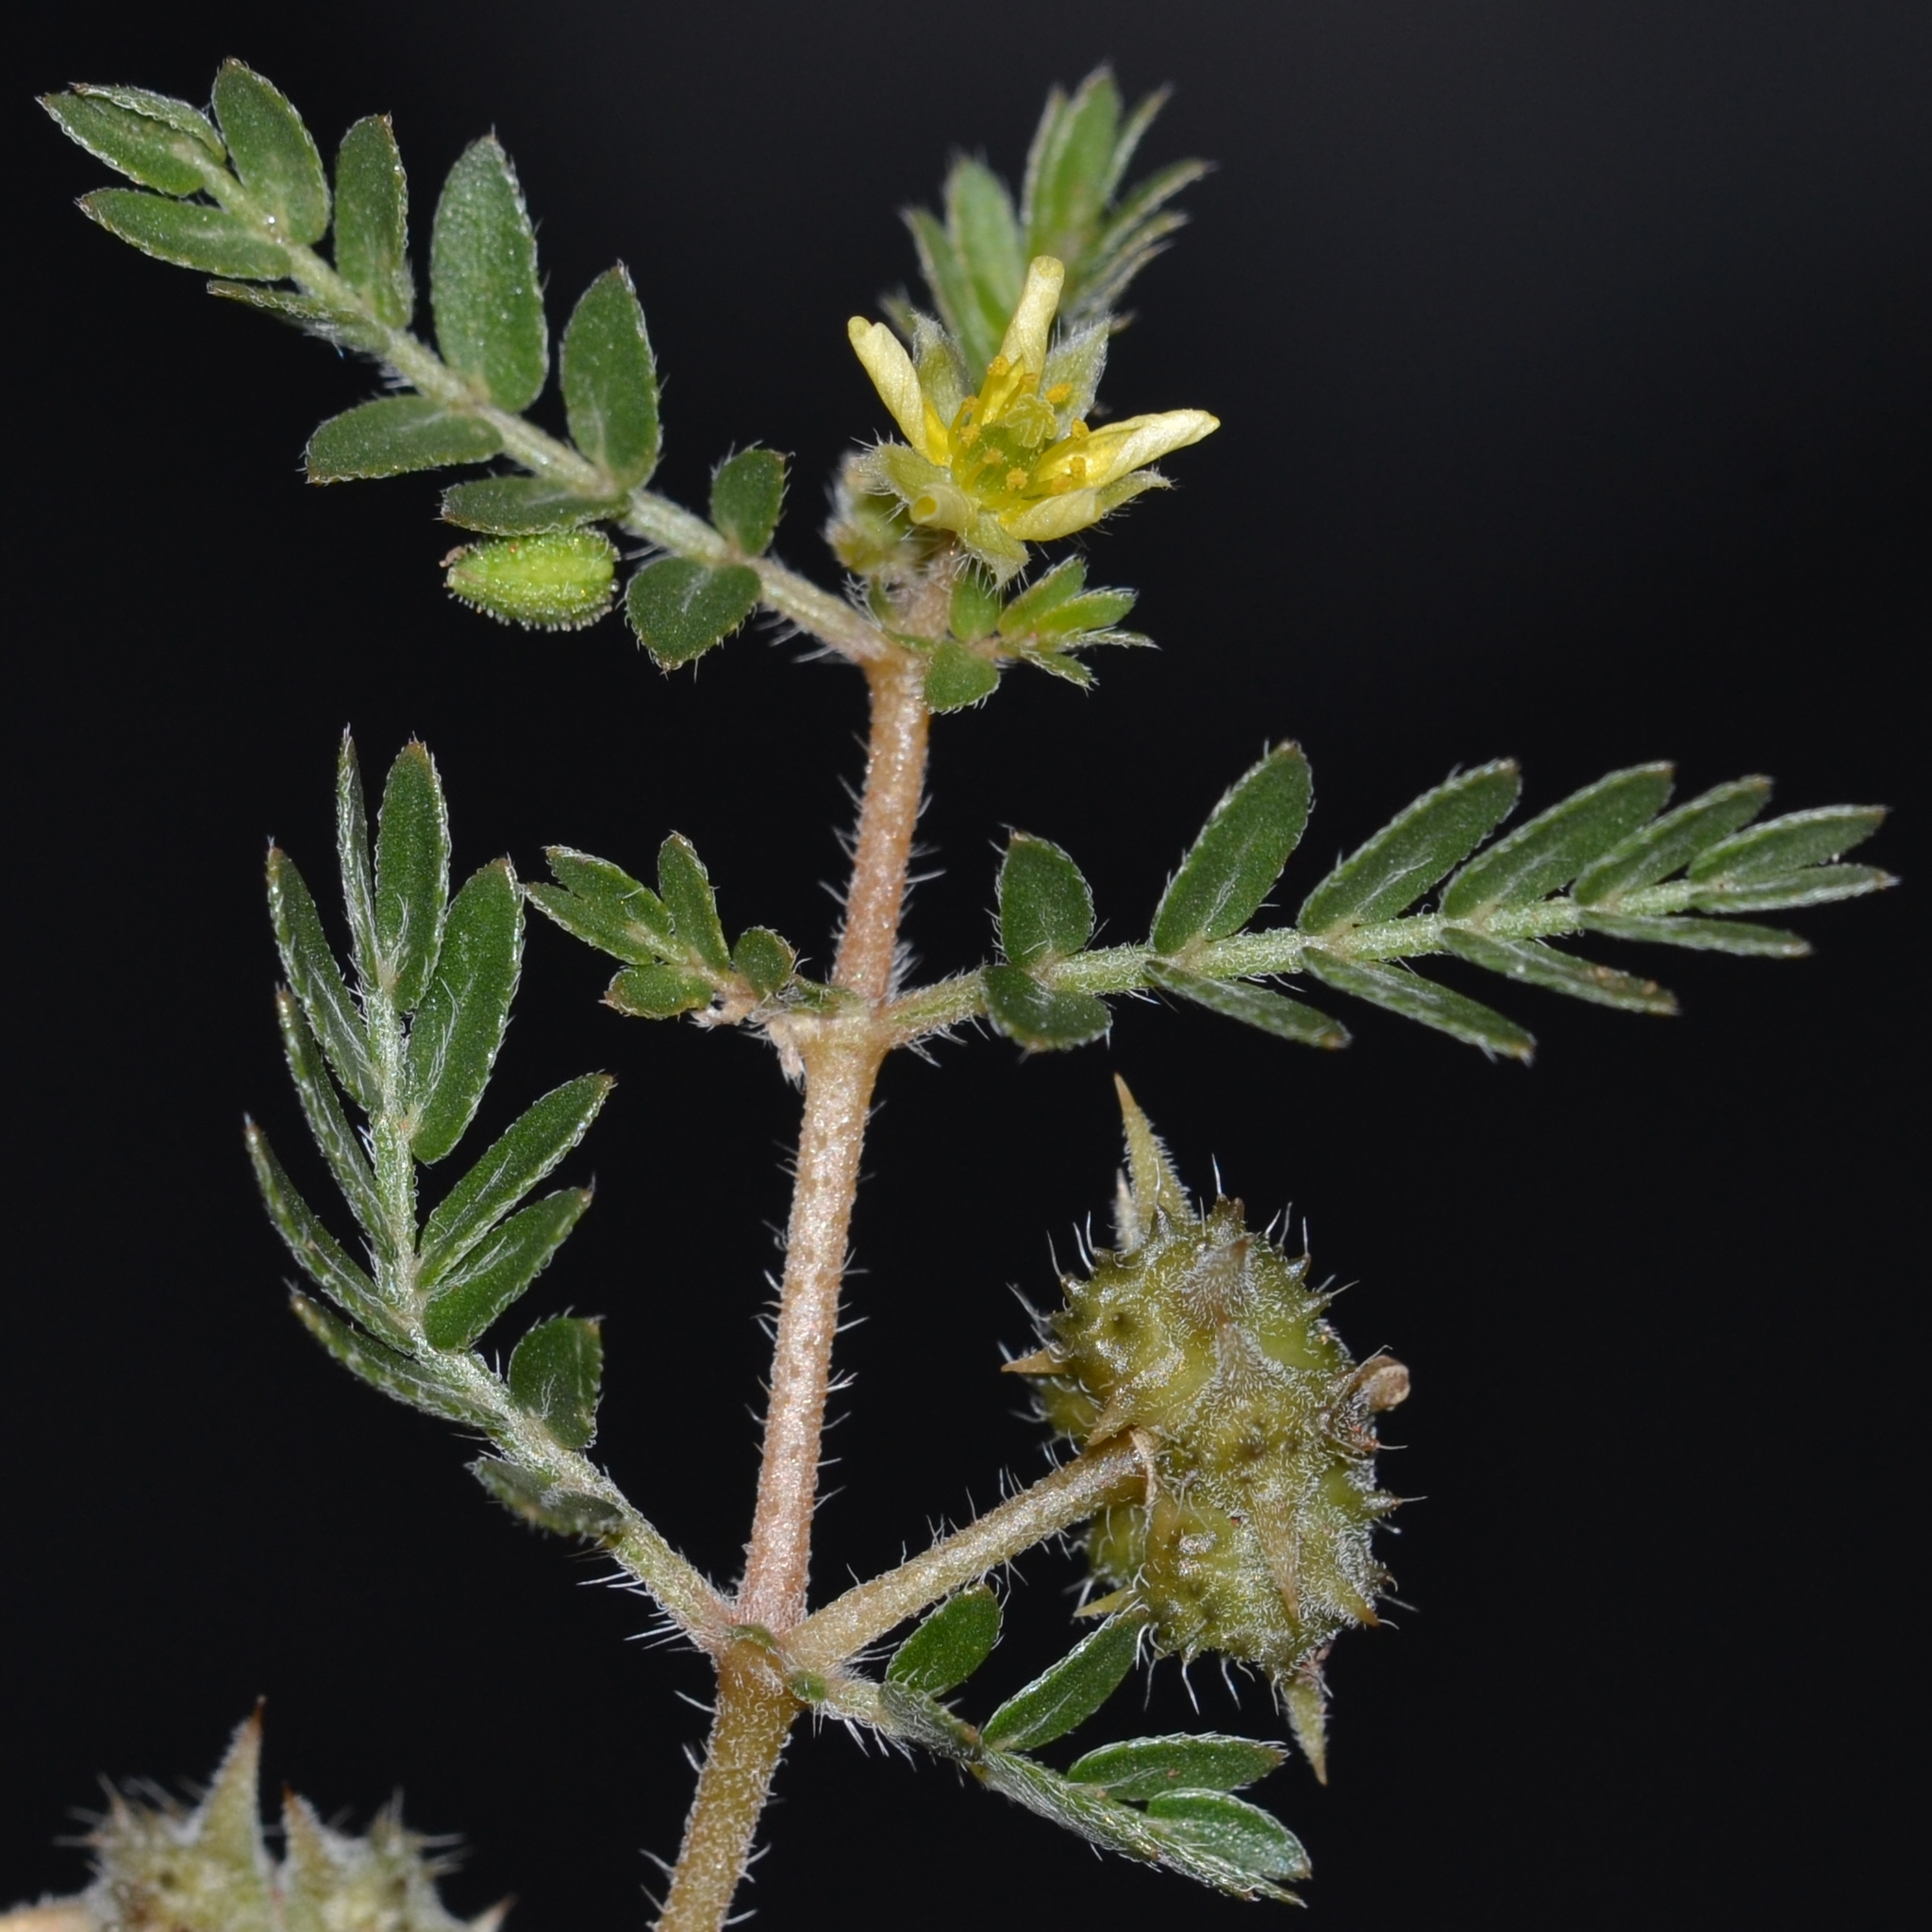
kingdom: Plantae
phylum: Tracheophyta
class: Magnoliopsida
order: Zygophyllales
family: Zygophyllaceae
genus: Tribulus
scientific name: Tribulus terrestris
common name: Puncturevine
